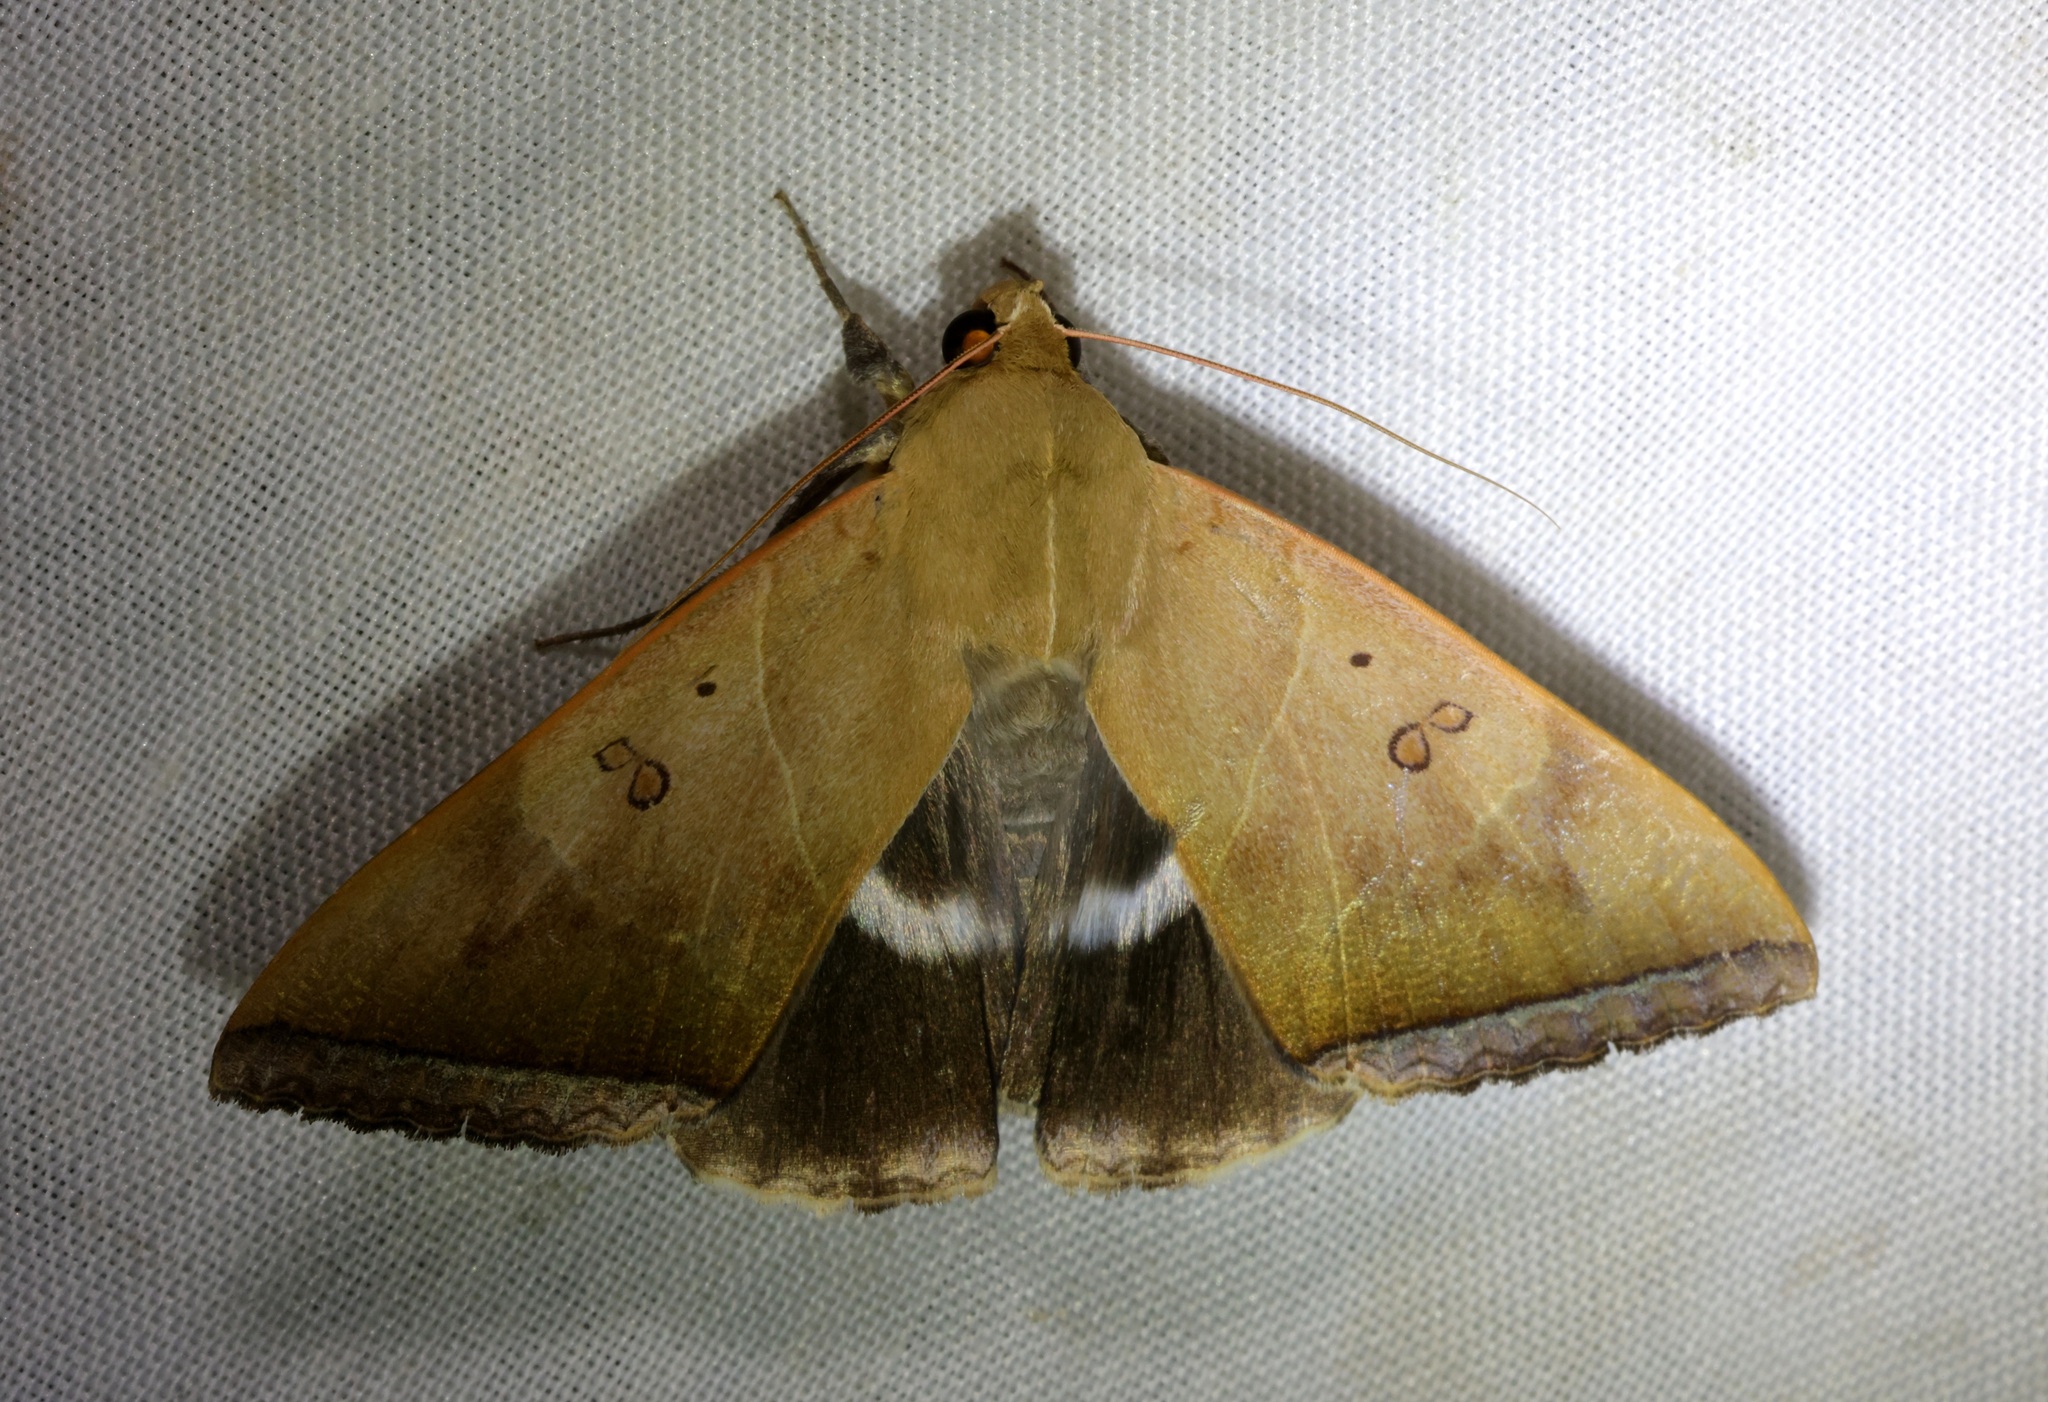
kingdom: Animalia
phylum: Arthropoda
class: Insecta
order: Lepidoptera
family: Erebidae
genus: Artena
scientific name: Artena dotata
